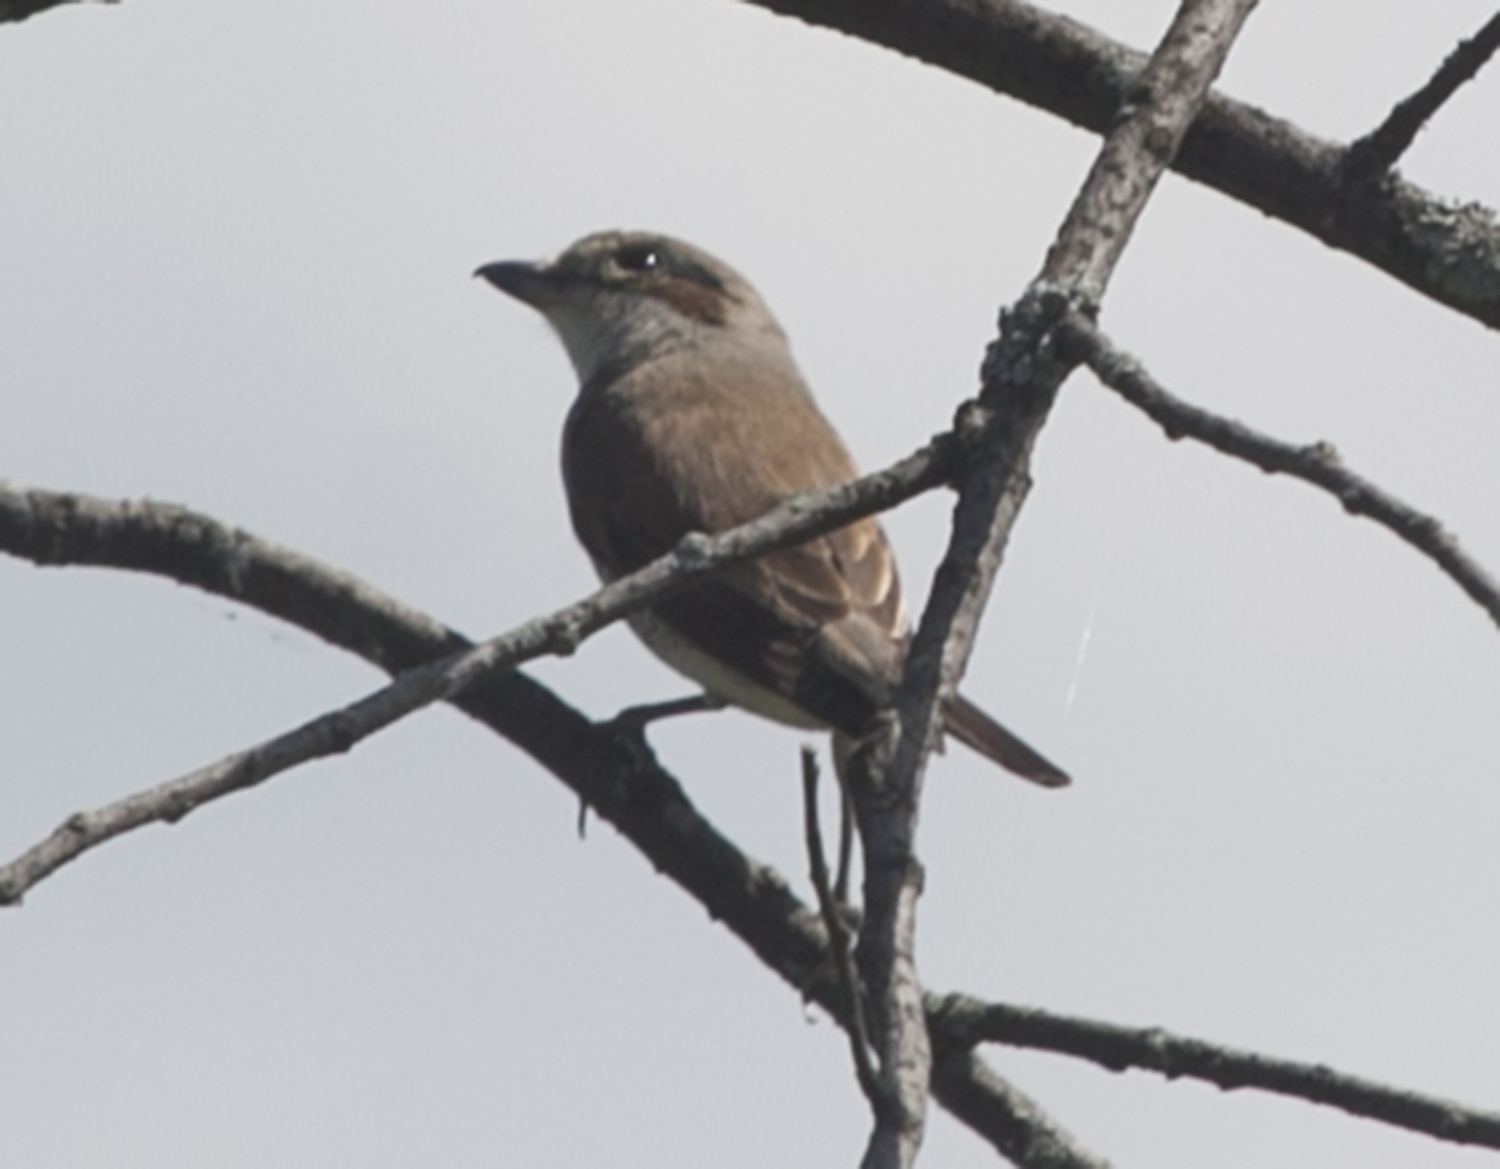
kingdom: Animalia
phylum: Chordata
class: Aves
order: Passeriformes
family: Laniidae
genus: Lanius
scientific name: Lanius collurio
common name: Red-backed shrike
